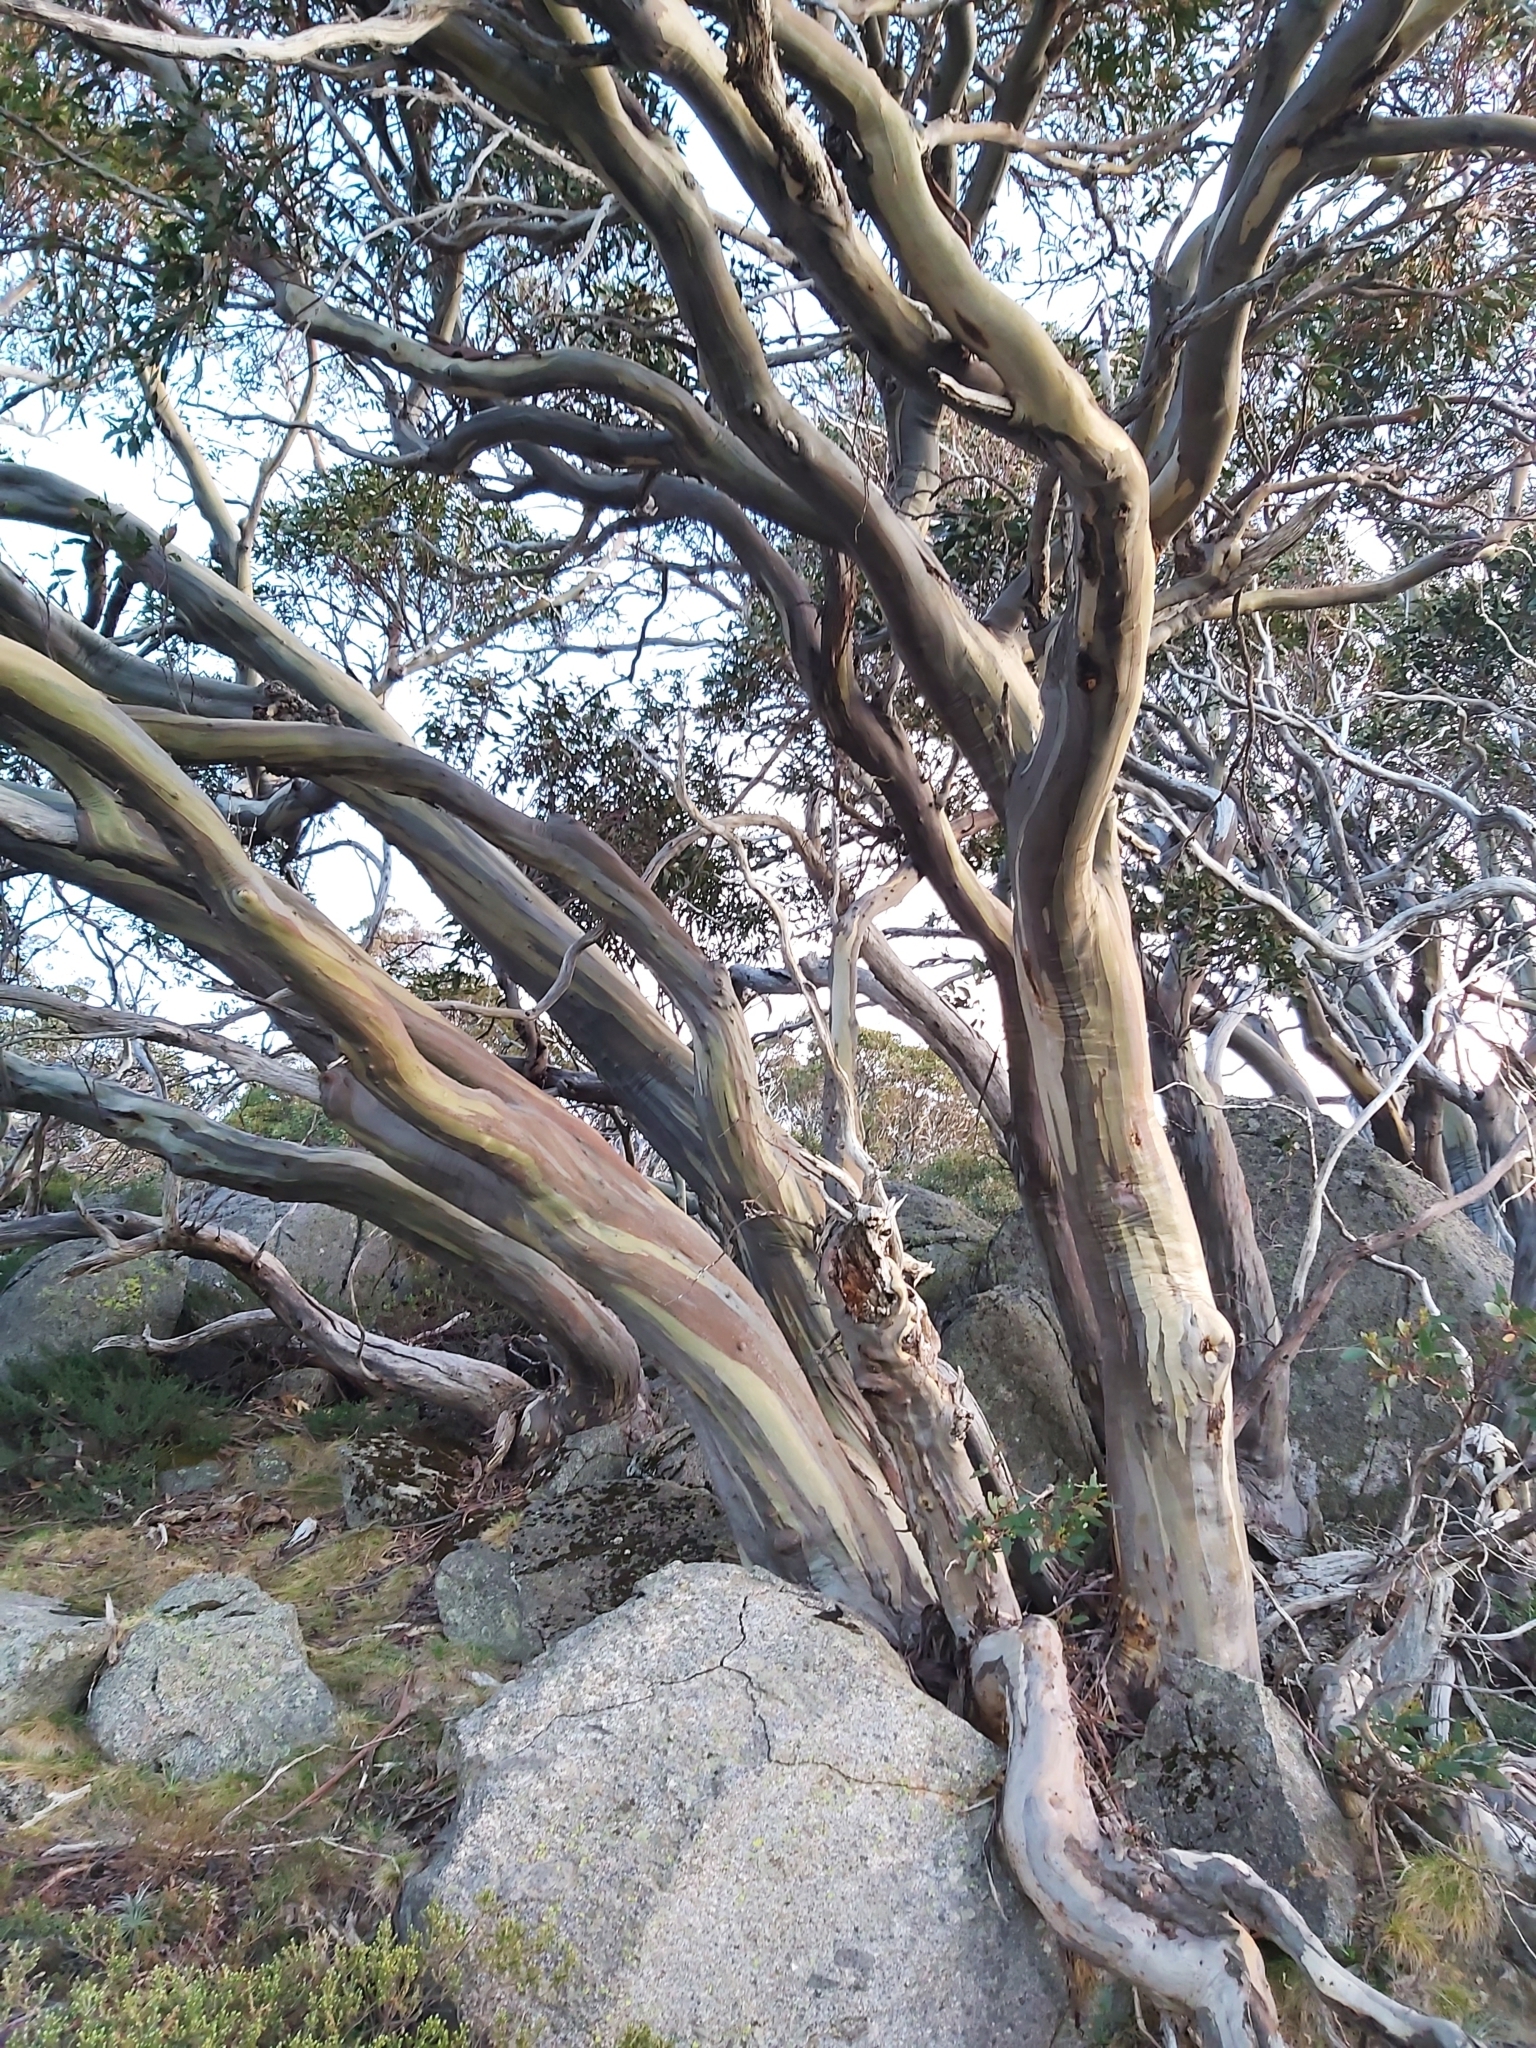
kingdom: Plantae
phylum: Tracheophyta
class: Magnoliopsida
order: Myrtales
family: Myrtaceae
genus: Eucalyptus
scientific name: Eucalyptus pauciflora
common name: Snow gum
